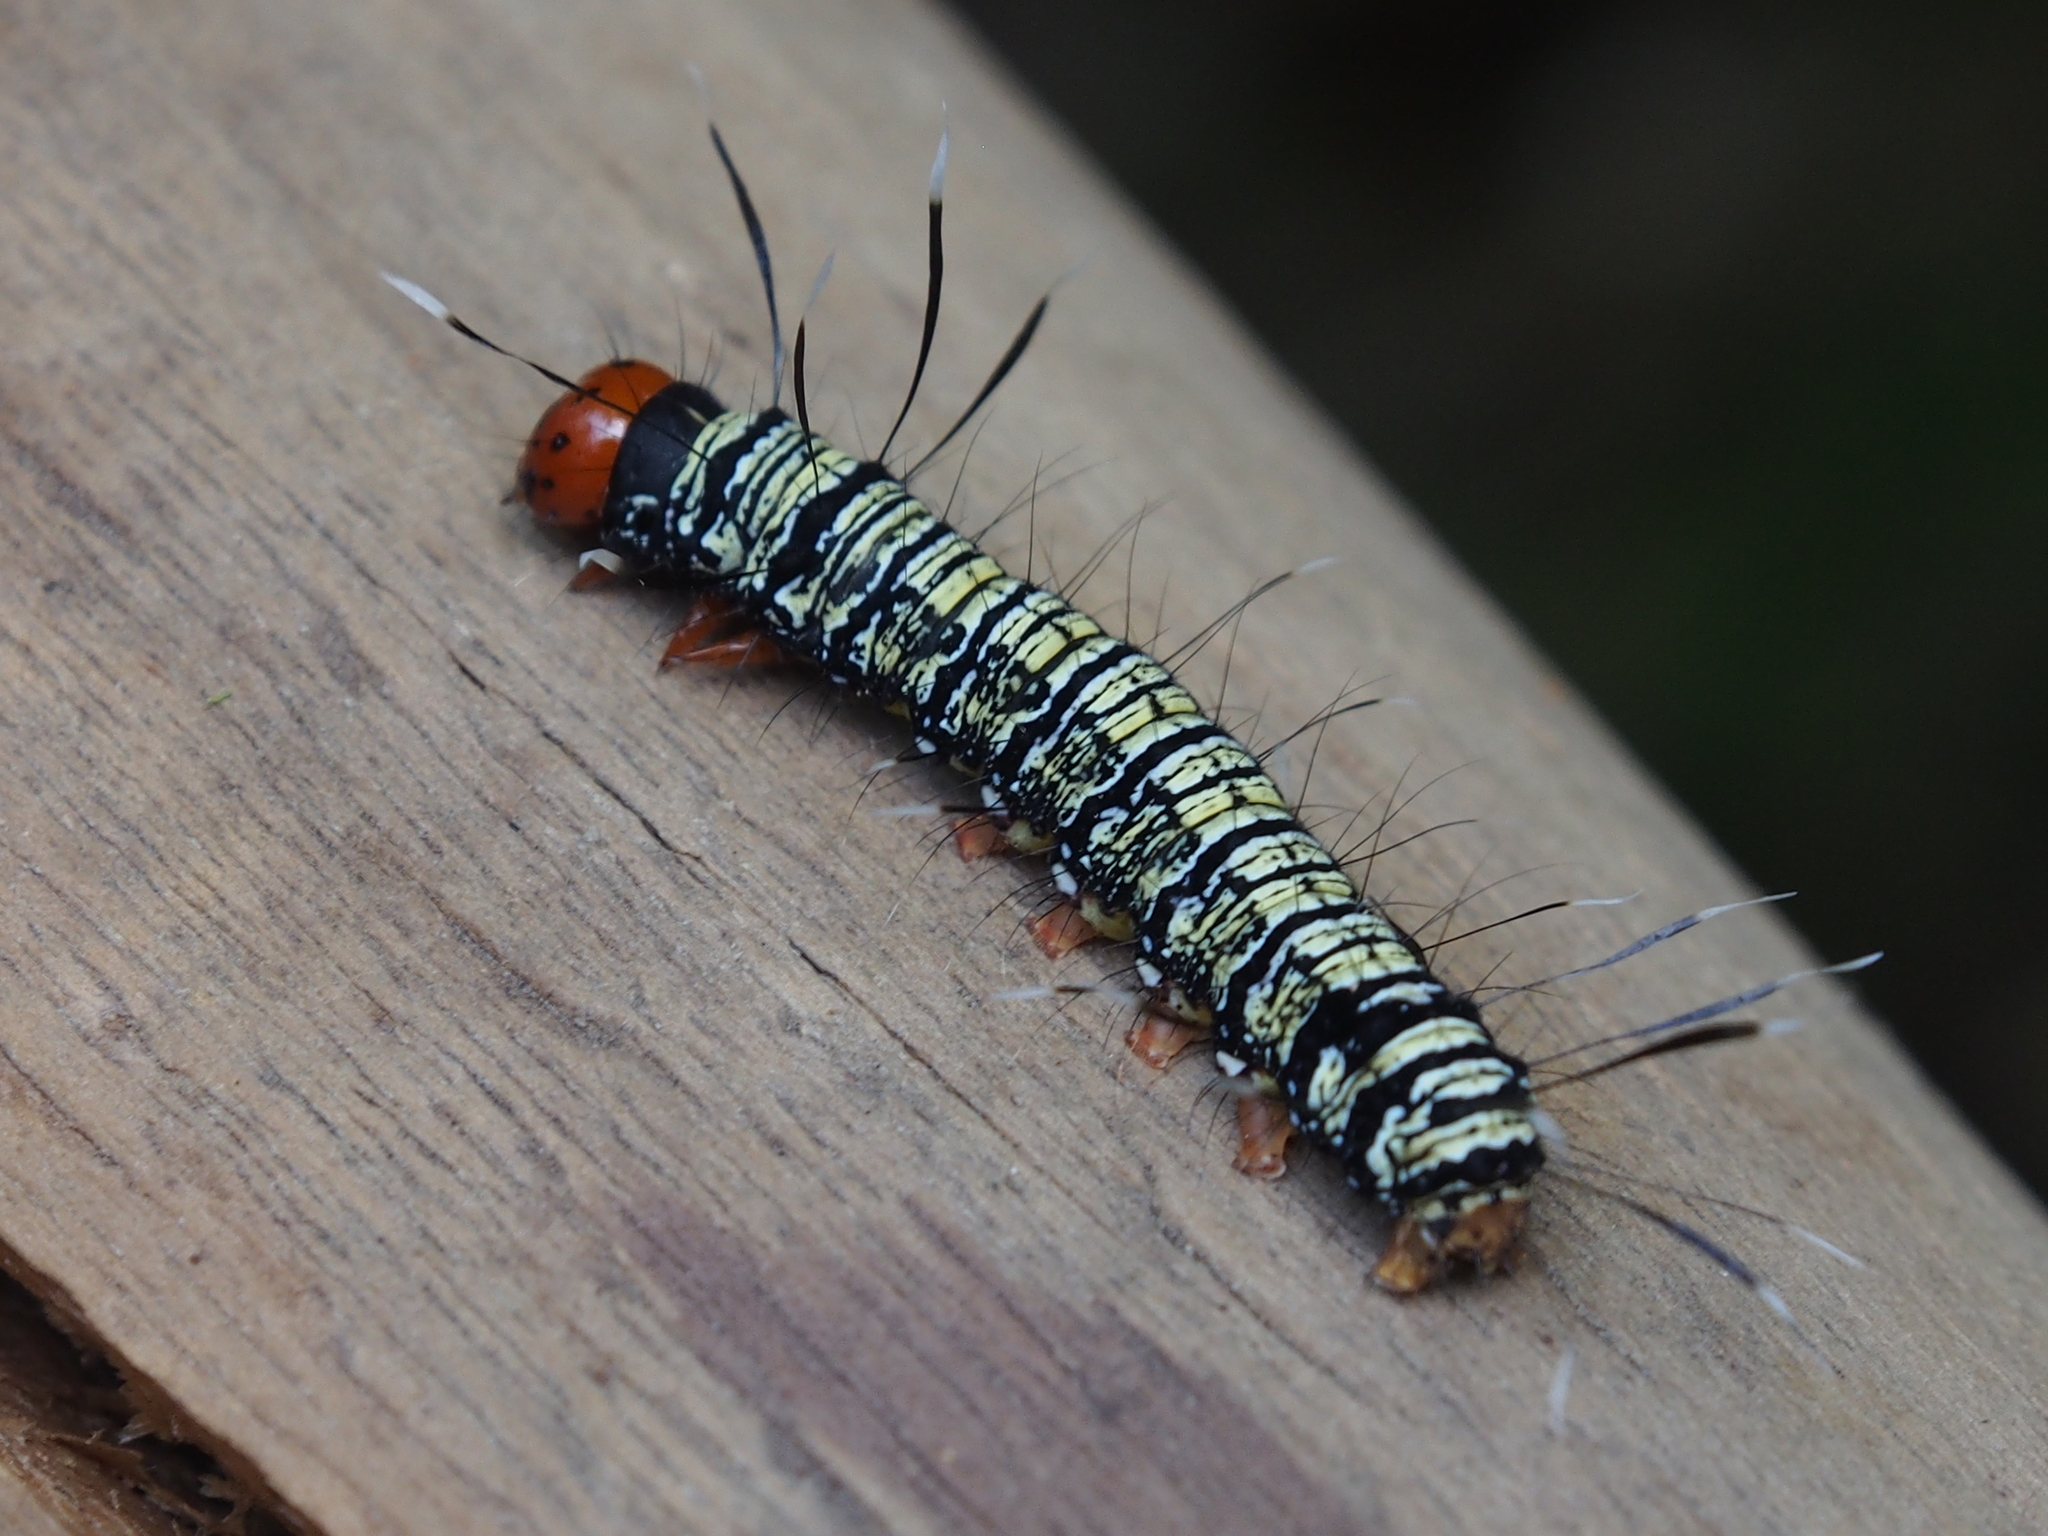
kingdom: Animalia
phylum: Arthropoda
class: Insecta
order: Lepidoptera
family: Uraniidae
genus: Urania
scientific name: Urania fulgens
